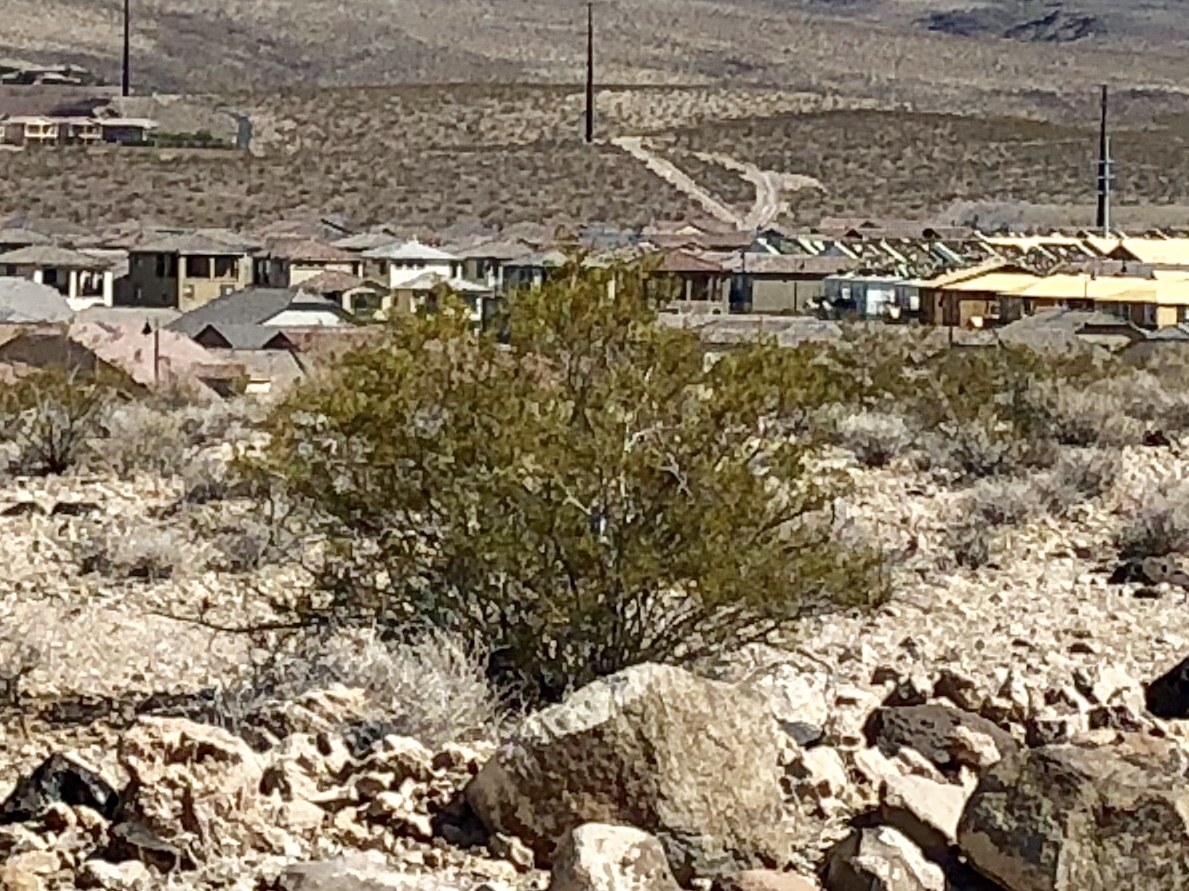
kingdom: Plantae
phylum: Tracheophyta
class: Magnoliopsida
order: Zygophyllales
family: Zygophyllaceae
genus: Larrea
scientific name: Larrea tridentata
